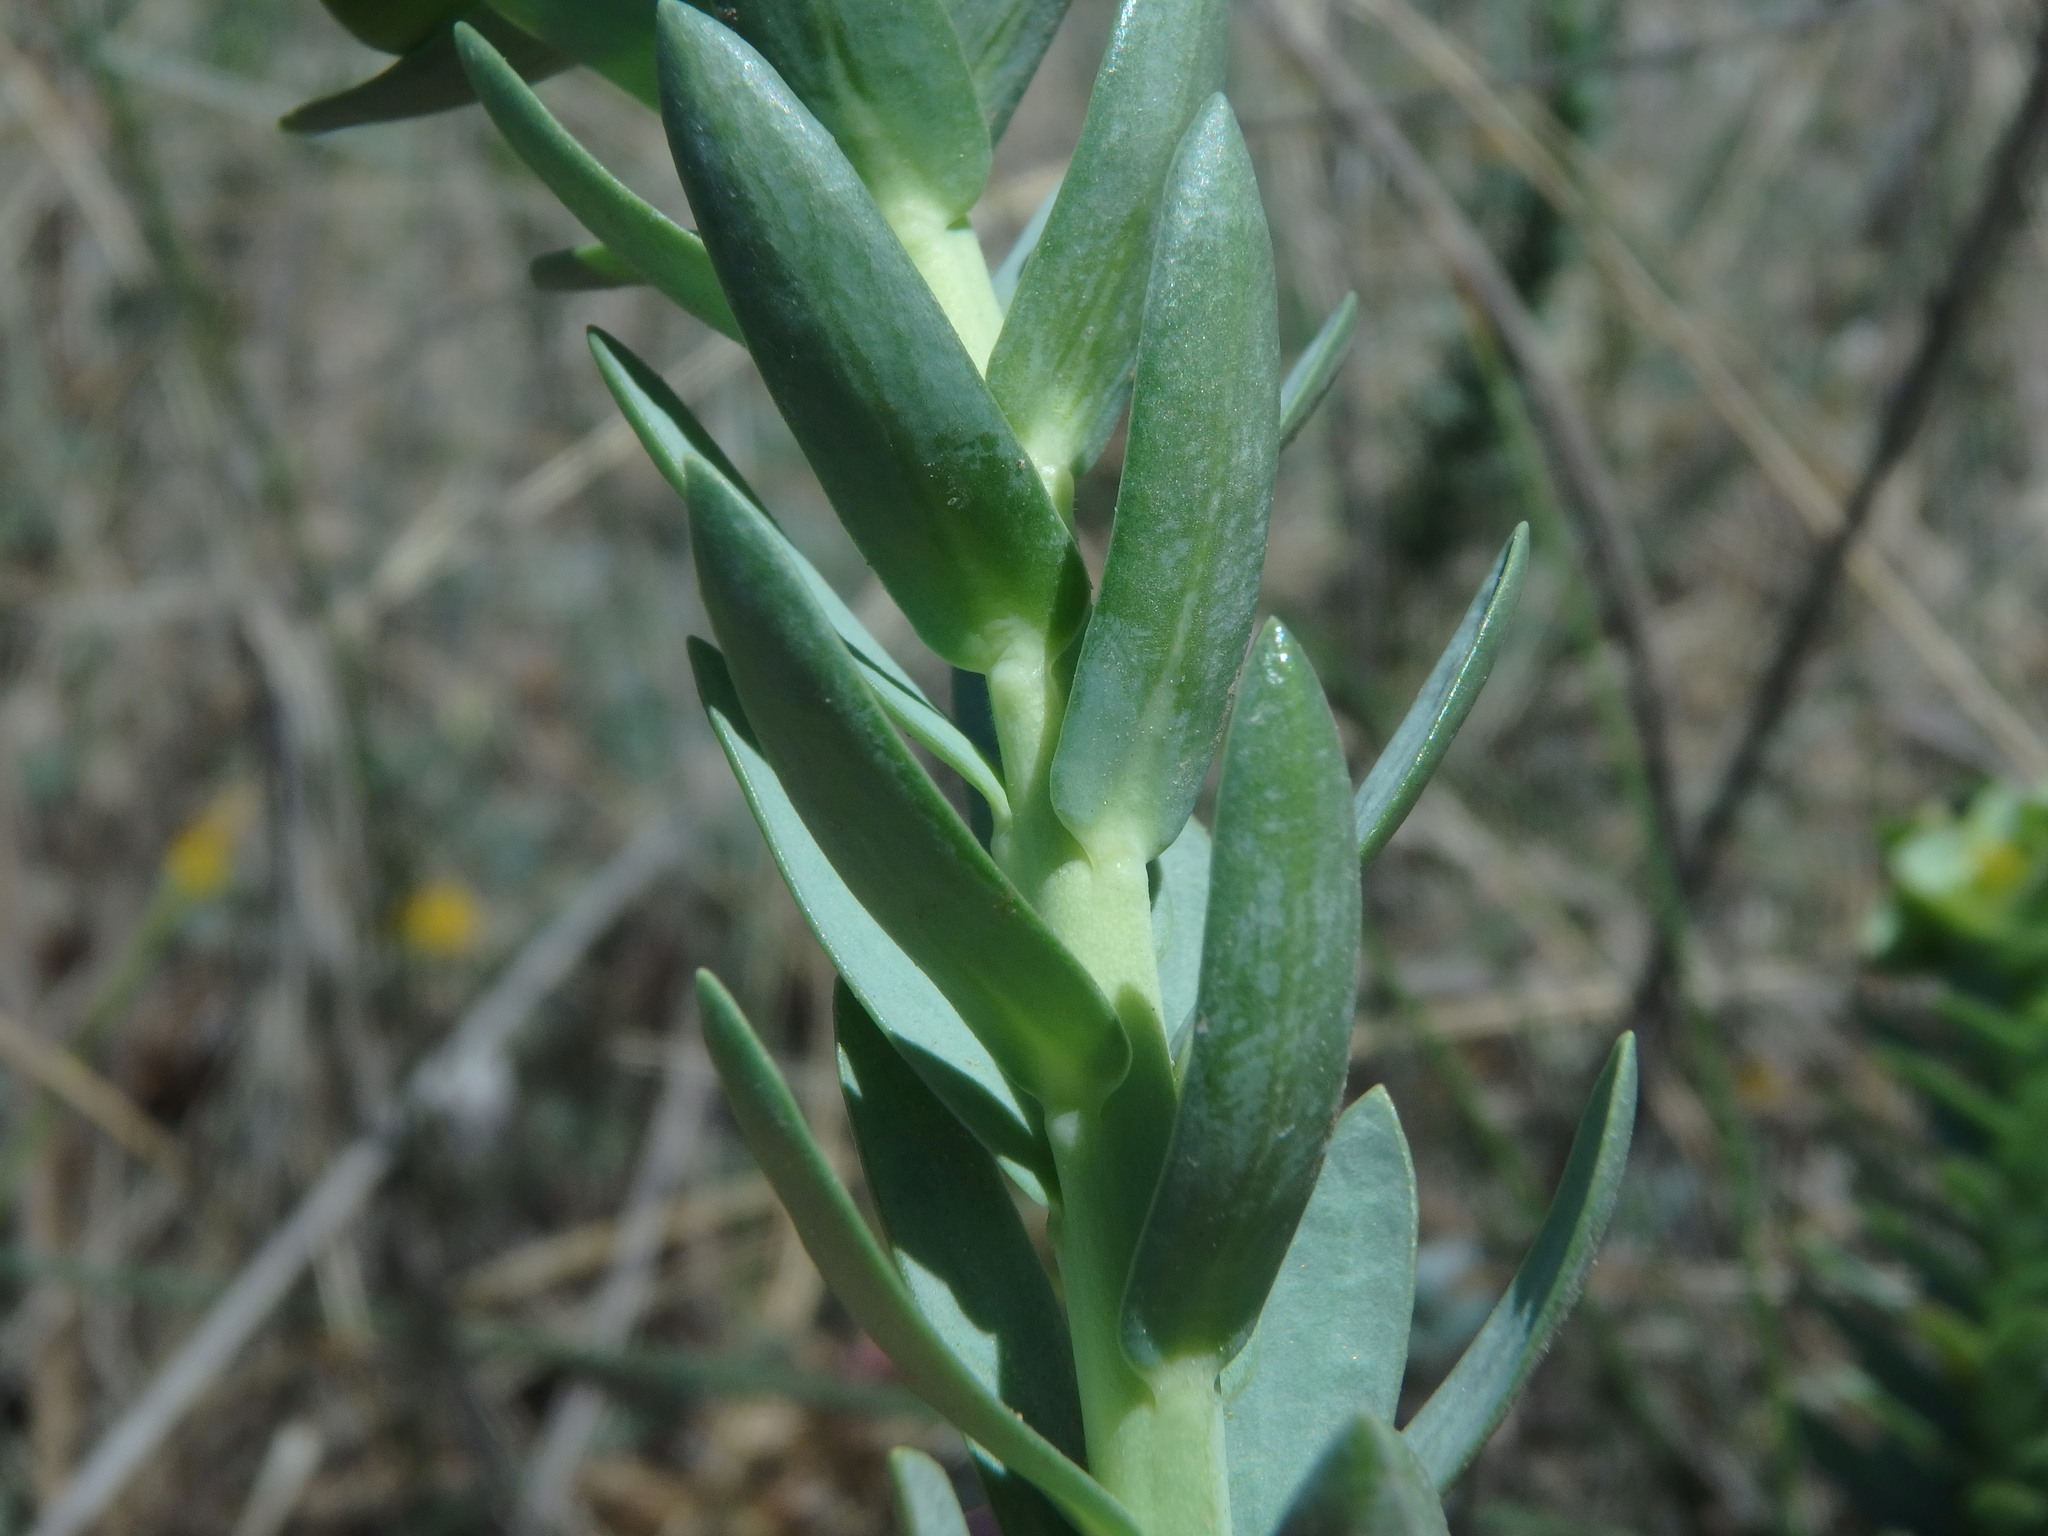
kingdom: Plantae
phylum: Tracheophyta
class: Magnoliopsida
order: Malpighiales
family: Euphorbiaceae
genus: Euphorbia
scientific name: Euphorbia paralias
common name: Sea spurge
